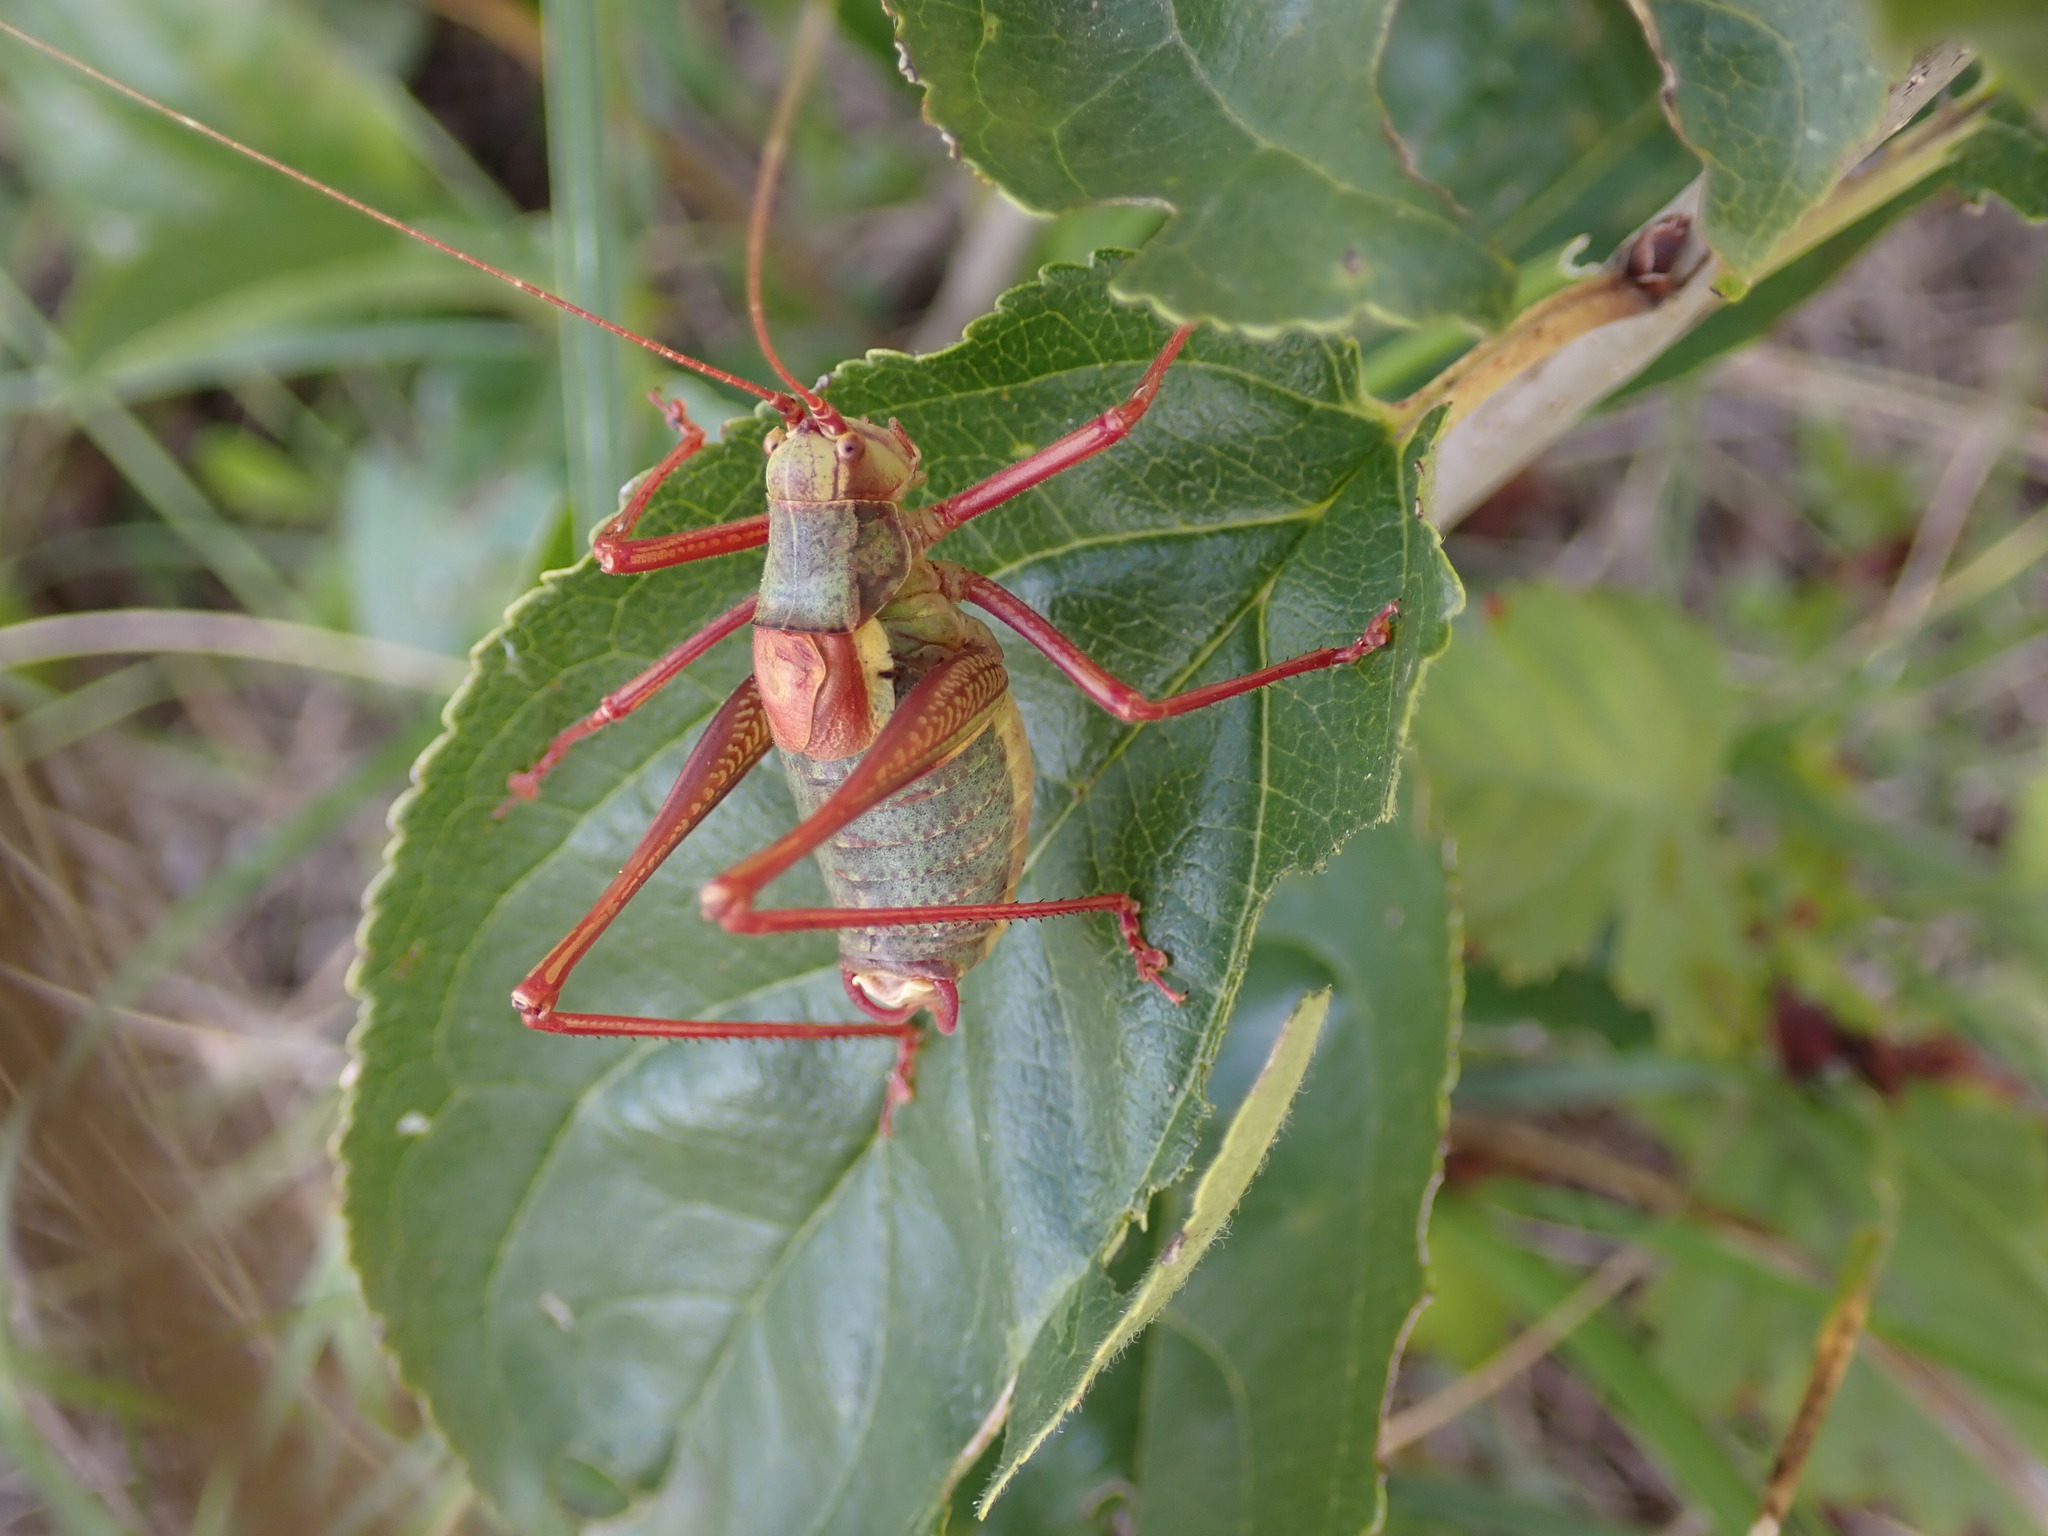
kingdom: Animalia
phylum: Arthropoda
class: Insecta
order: Orthoptera
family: Tettigoniidae
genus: Barbitistes
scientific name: Barbitistes serricauda
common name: Saw-tailed bush-cricket
